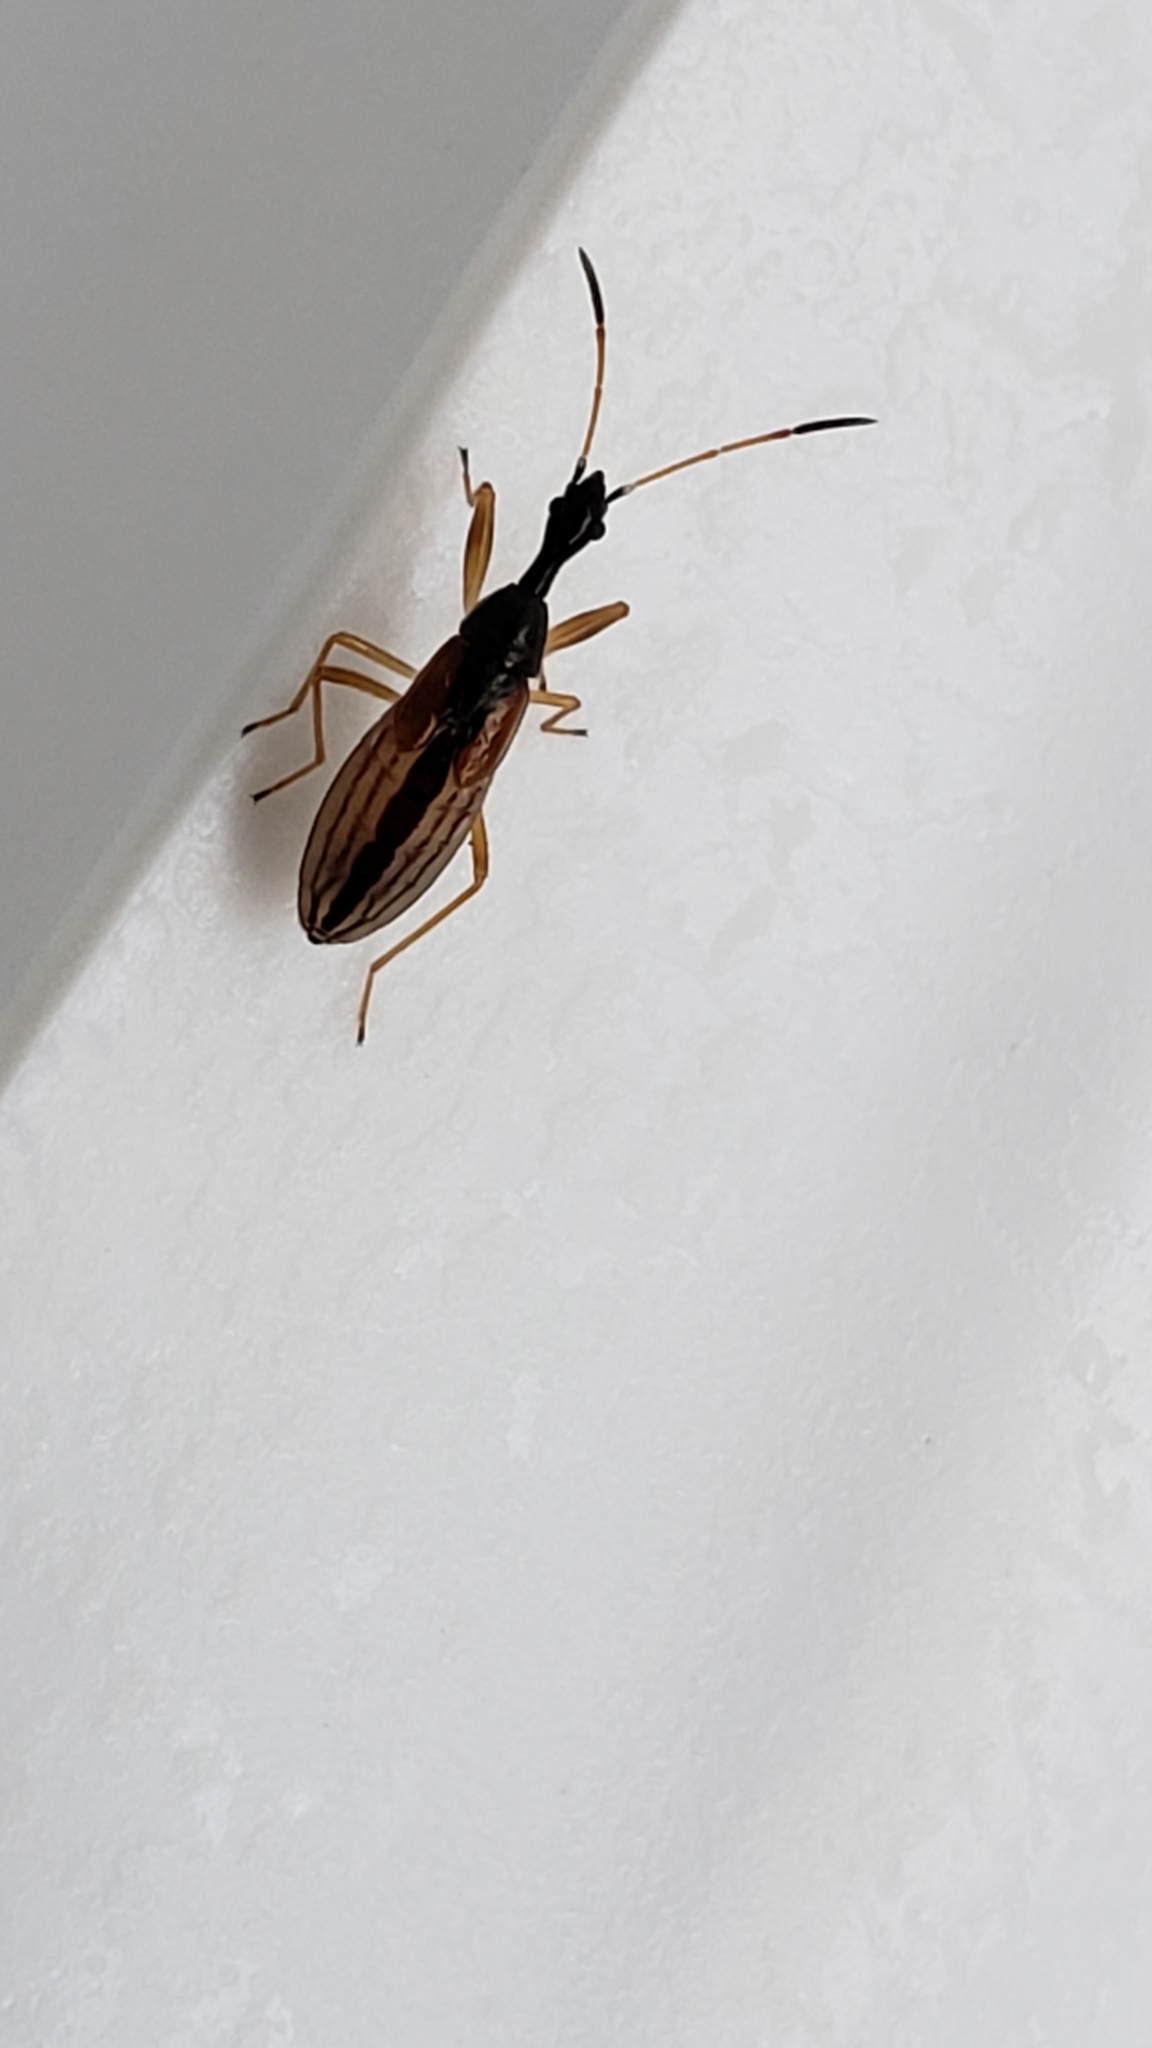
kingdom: Animalia
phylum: Arthropoda
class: Insecta
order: Hemiptera
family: Rhyparochromidae
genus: Myodocha
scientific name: Myodocha serripes
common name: Long-necked seed bug
